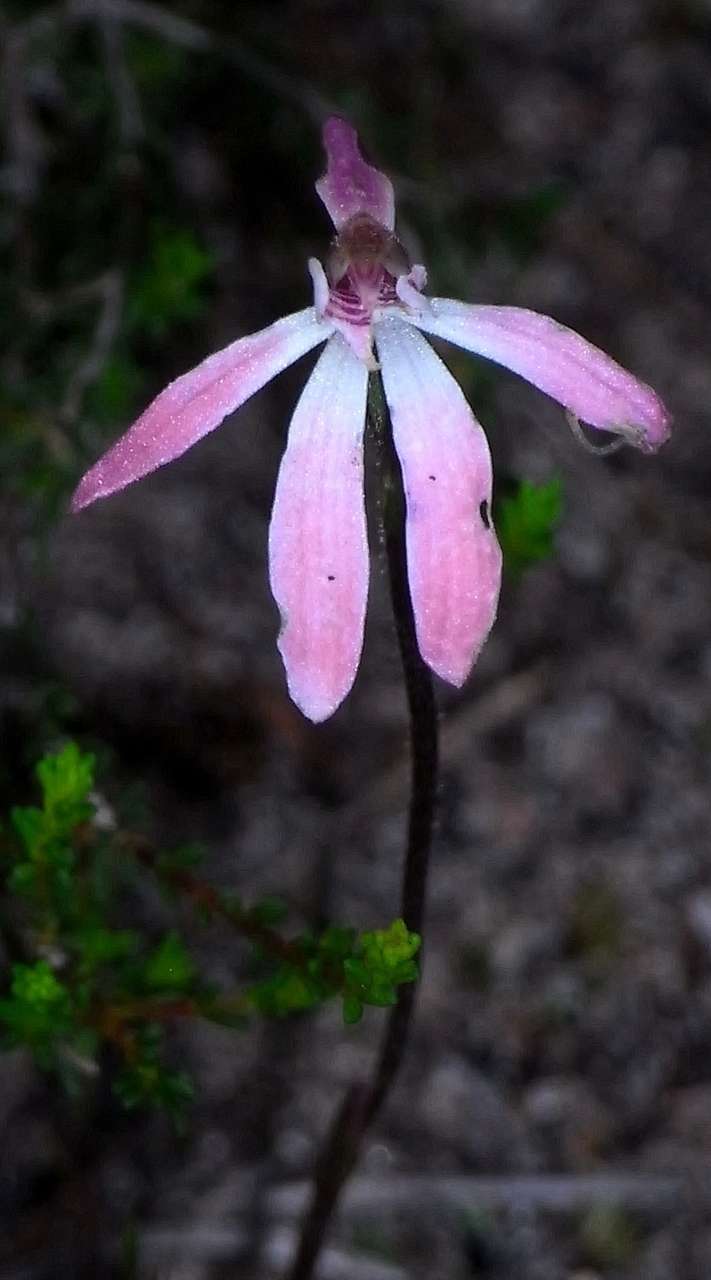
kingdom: Plantae
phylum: Tracheophyta
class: Liliopsida
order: Asparagales
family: Orchidaceae
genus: Caladenia
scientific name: Caladenia fuscata
